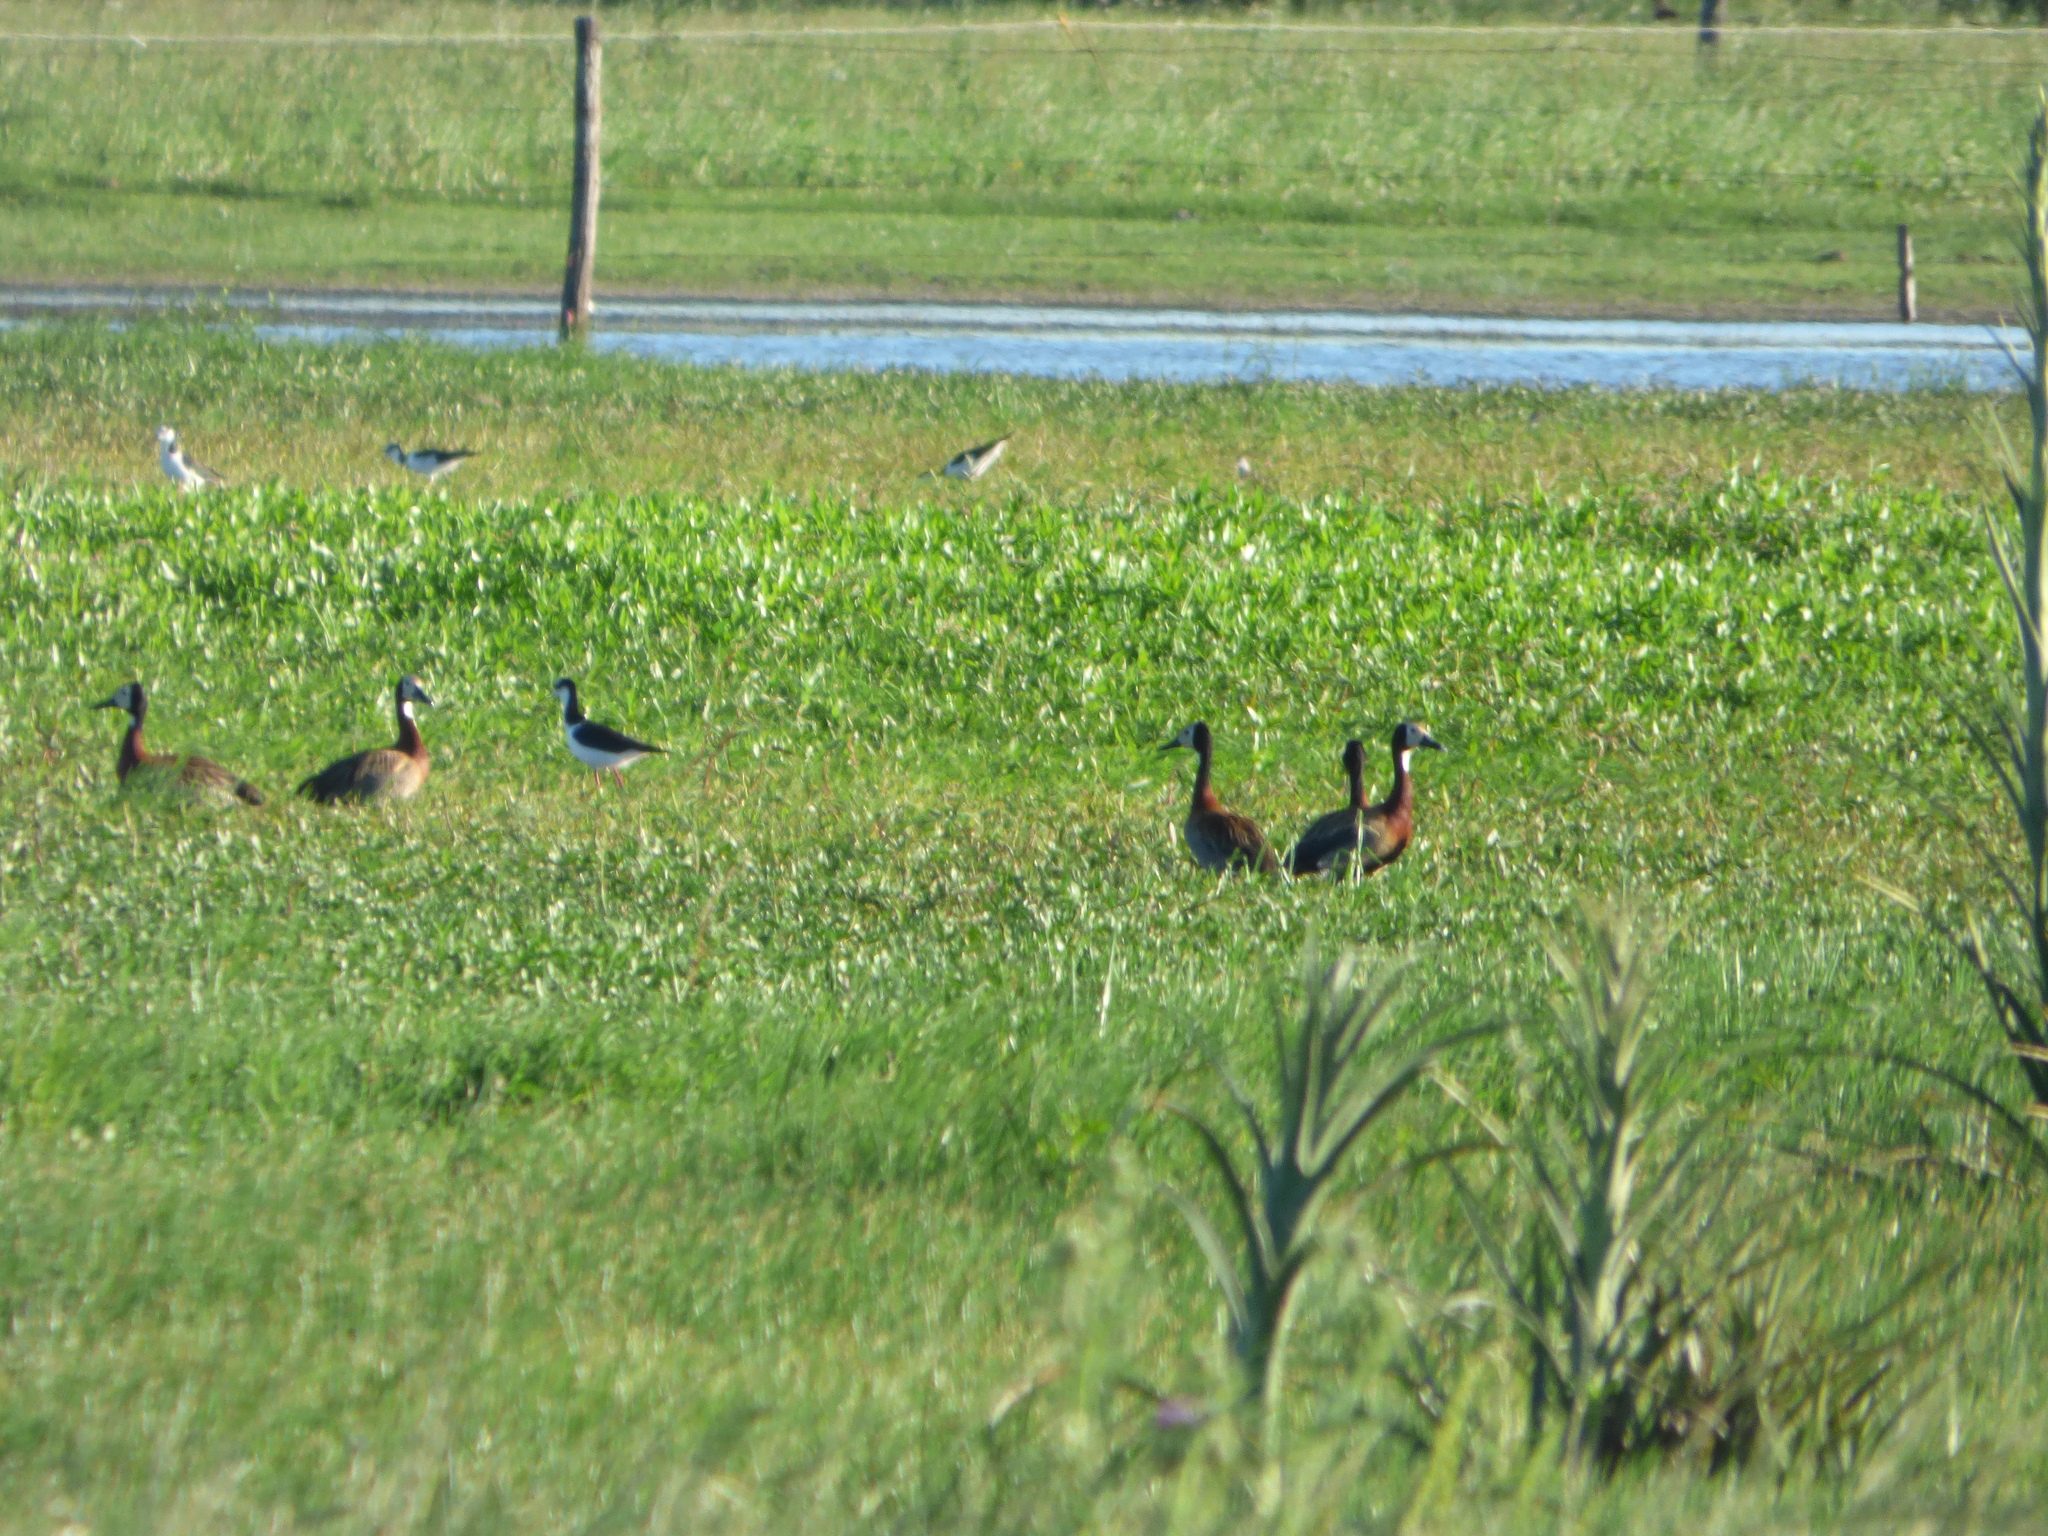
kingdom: Animalia
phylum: Chordata
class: Aves
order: Anseriformes
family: Anatidae
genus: Dendrocygna
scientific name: Dendrocygna viduata
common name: White-faced whistling duck
